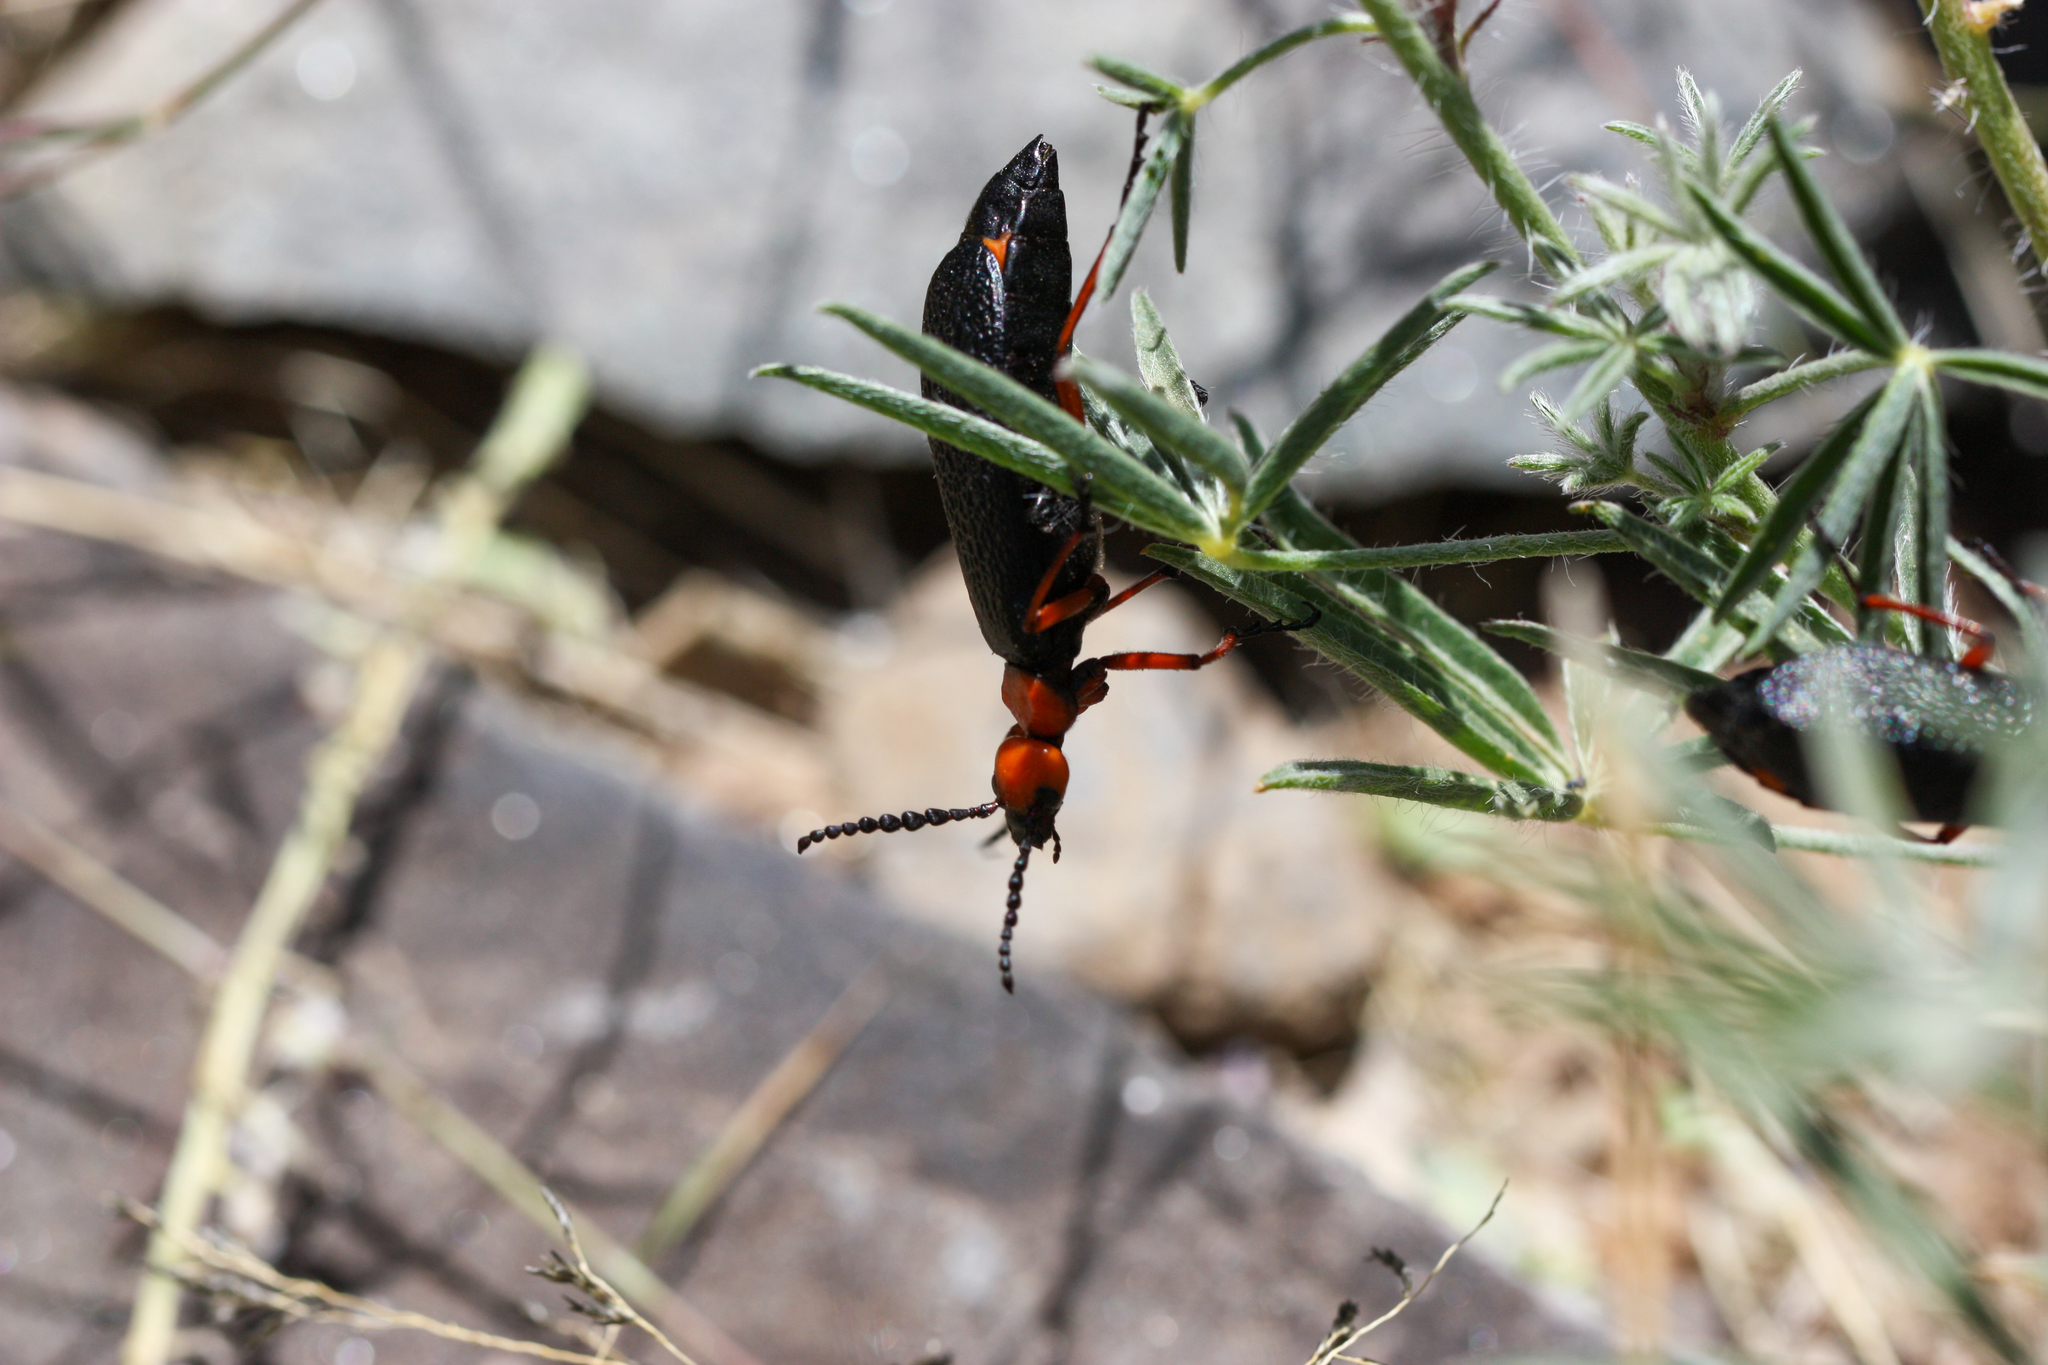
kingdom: Animalia
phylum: Arthropoda
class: Insecta
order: Coleoptera
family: Meloidae
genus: Lytta
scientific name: Lytta magister
